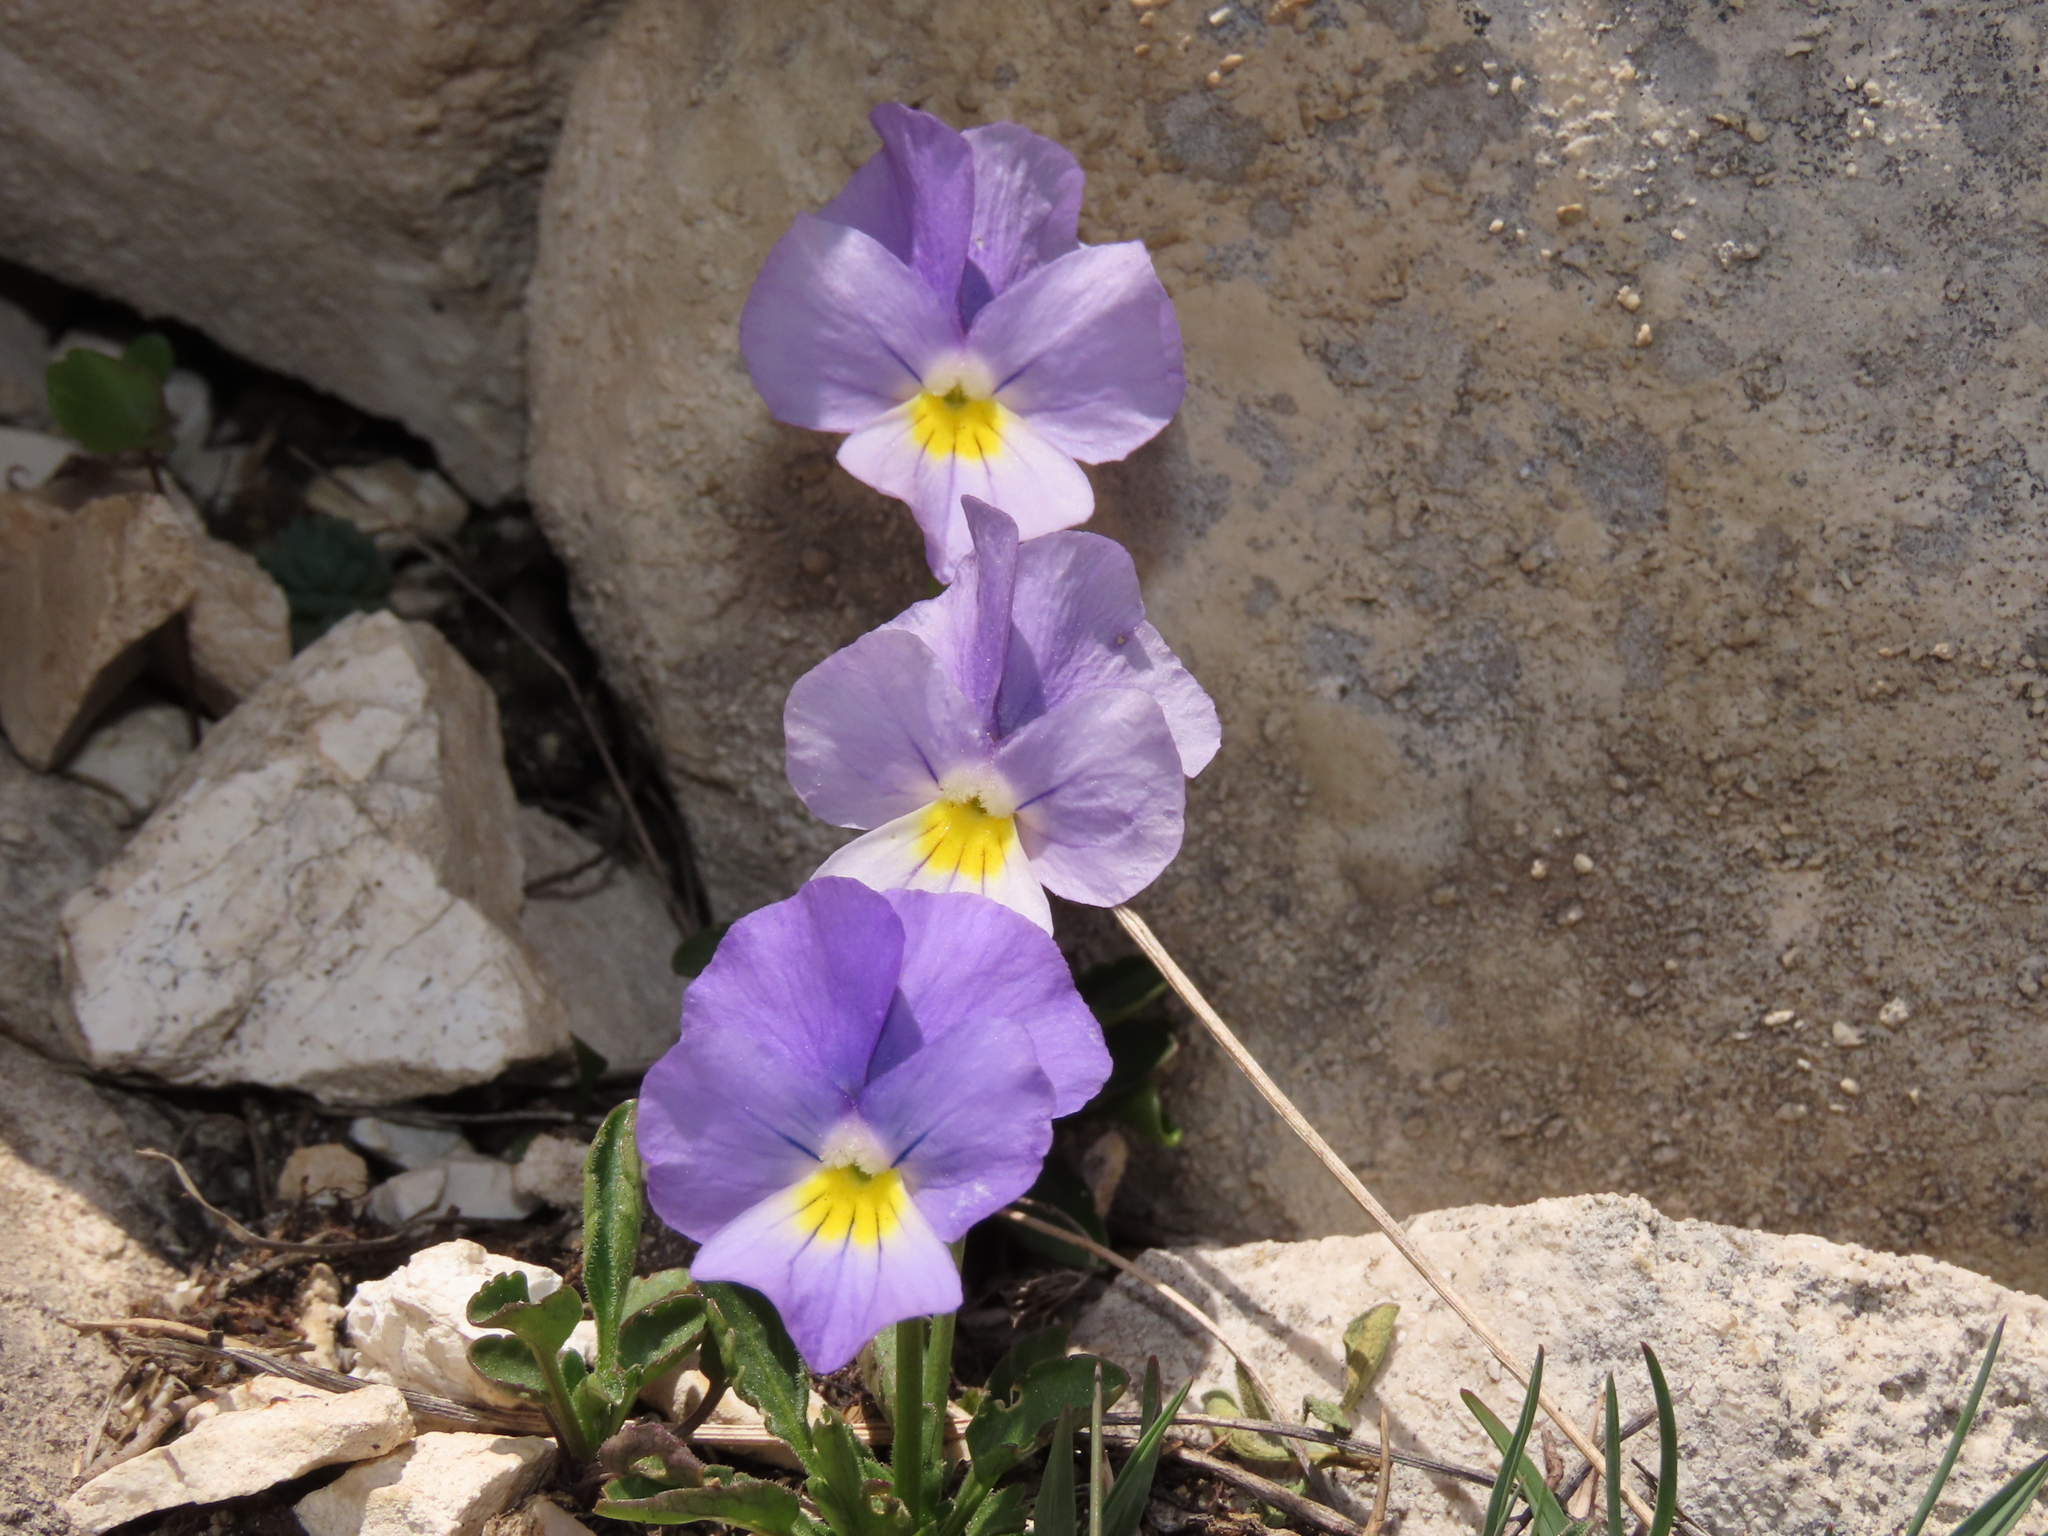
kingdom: Plantae
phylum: Tracheophyta
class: Magnoliopsida
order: Malpighiales
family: Violaceae
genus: Viola
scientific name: Viola eugeniae
